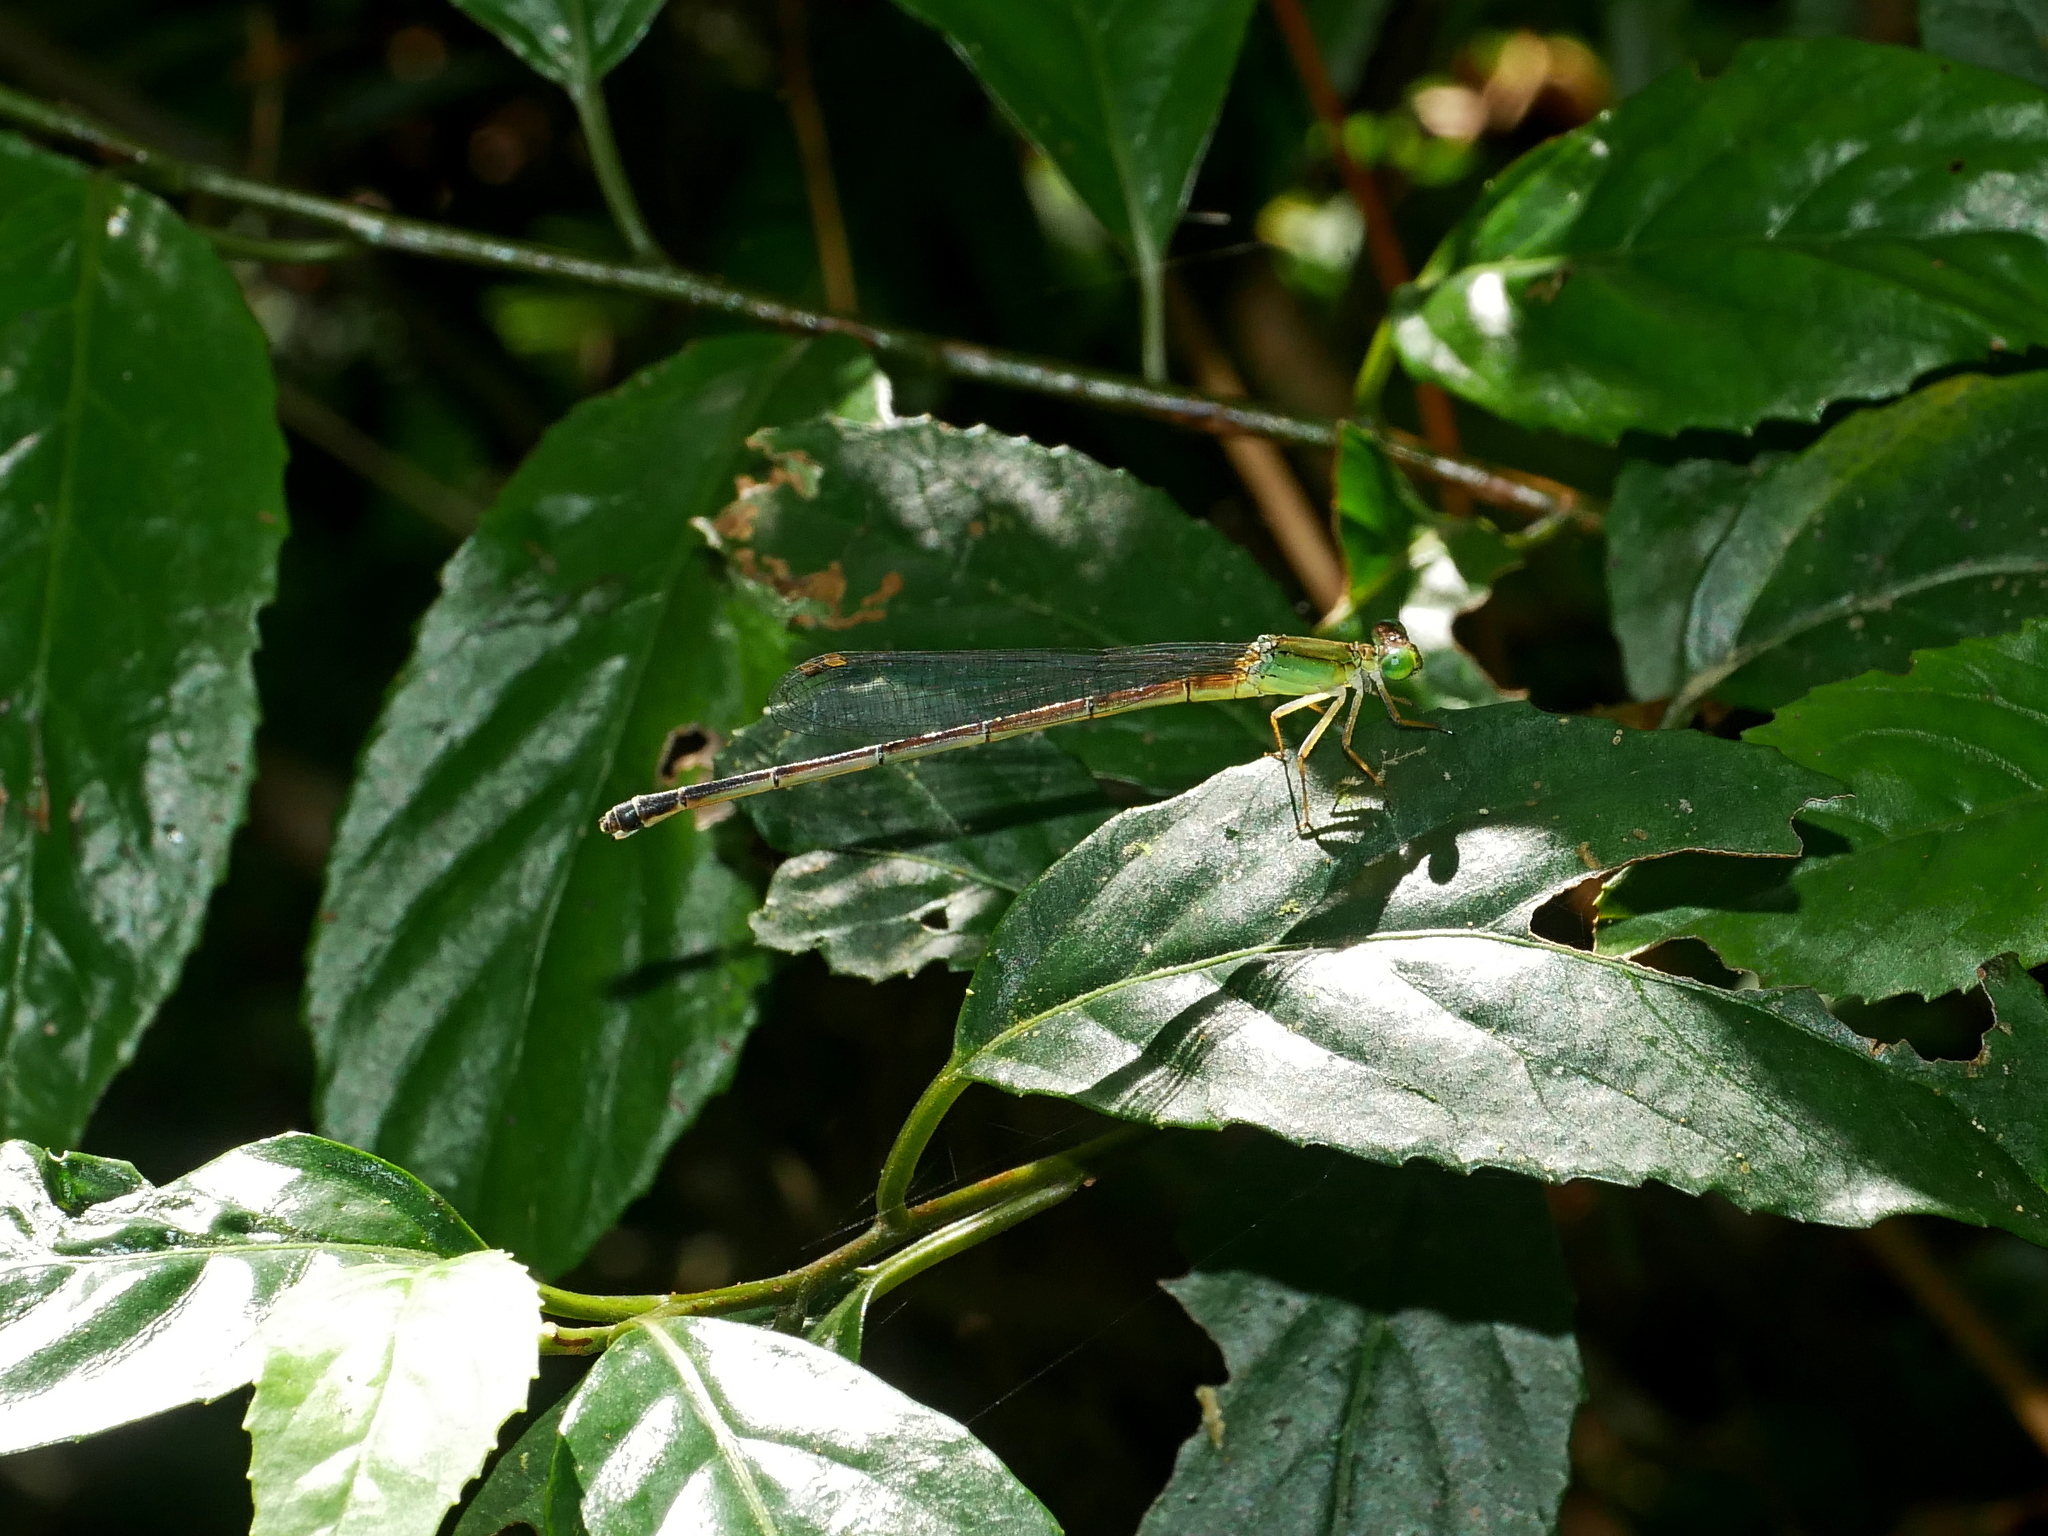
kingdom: Animalia
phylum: Arthropoda
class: Insecta
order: Odonata
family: Coenagrionidae
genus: Ceriagrion
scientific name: Ceriagrion fallax
